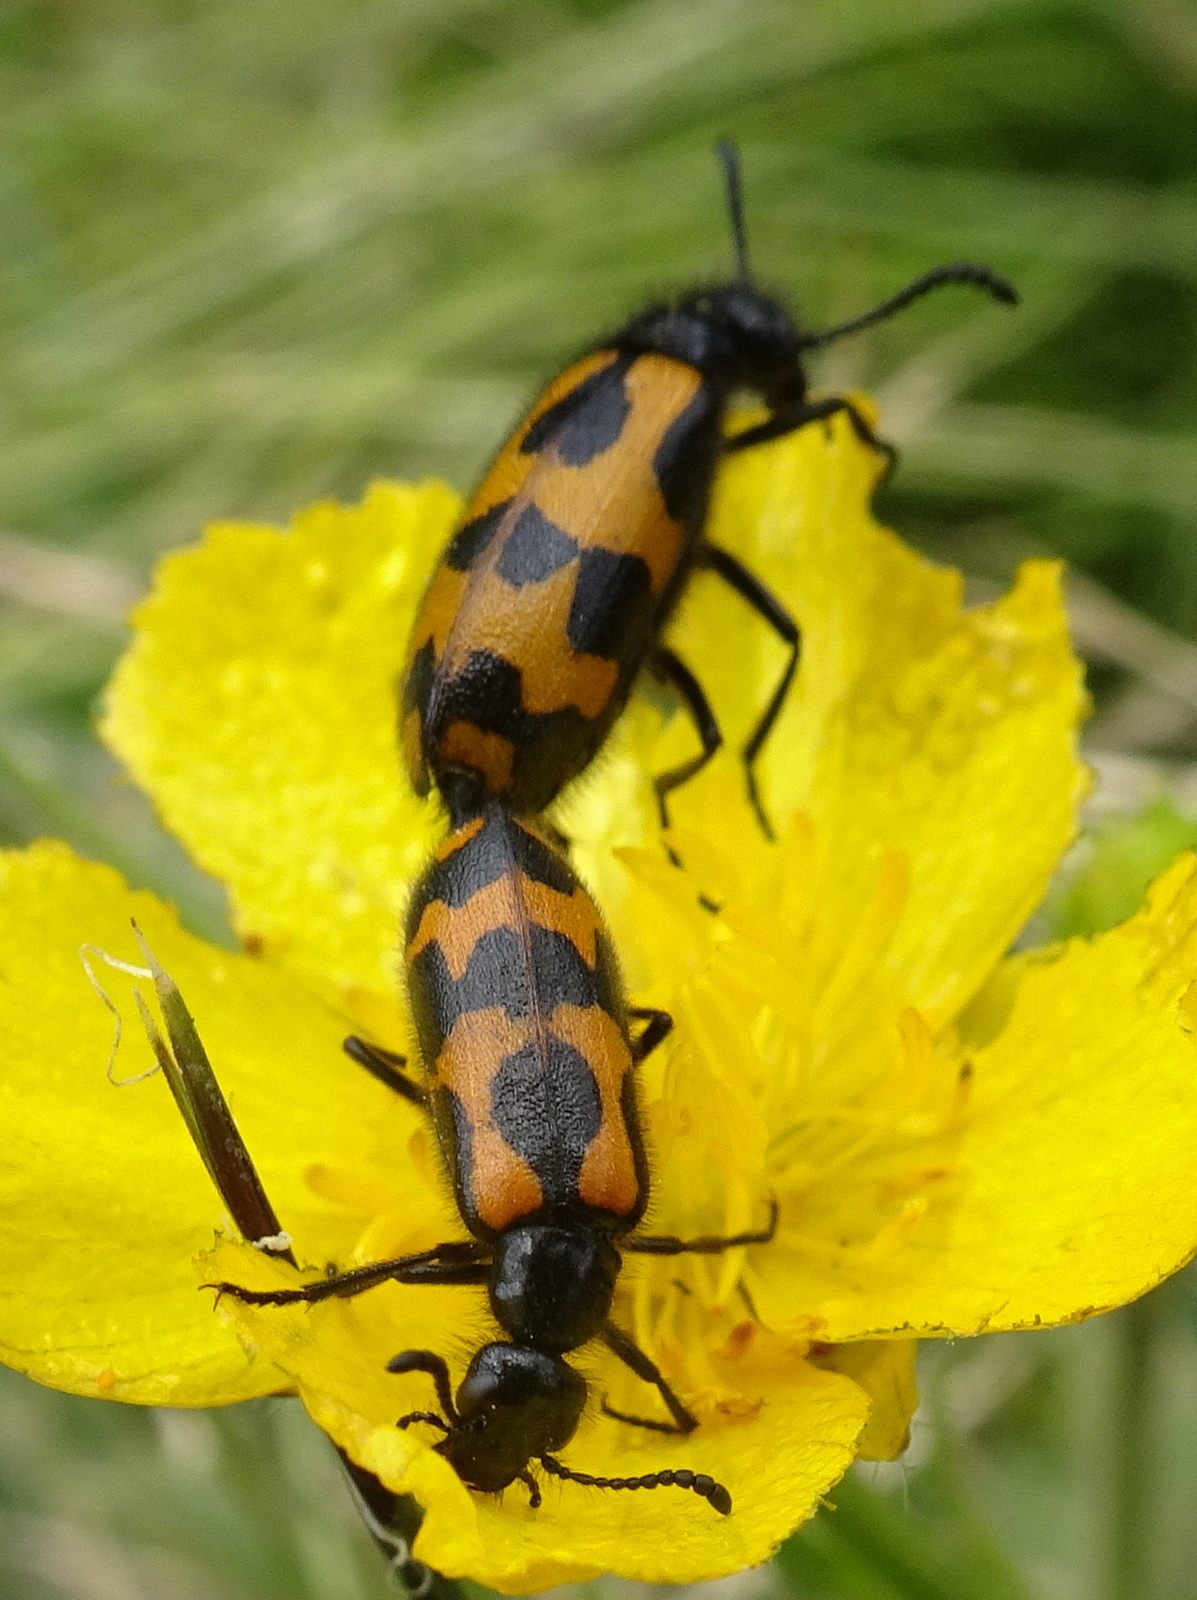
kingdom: Animalia
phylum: Arthropoda
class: Insecta
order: Coleoptera
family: Meloidae
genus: Mylabris
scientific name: Mylabris flexuosa
